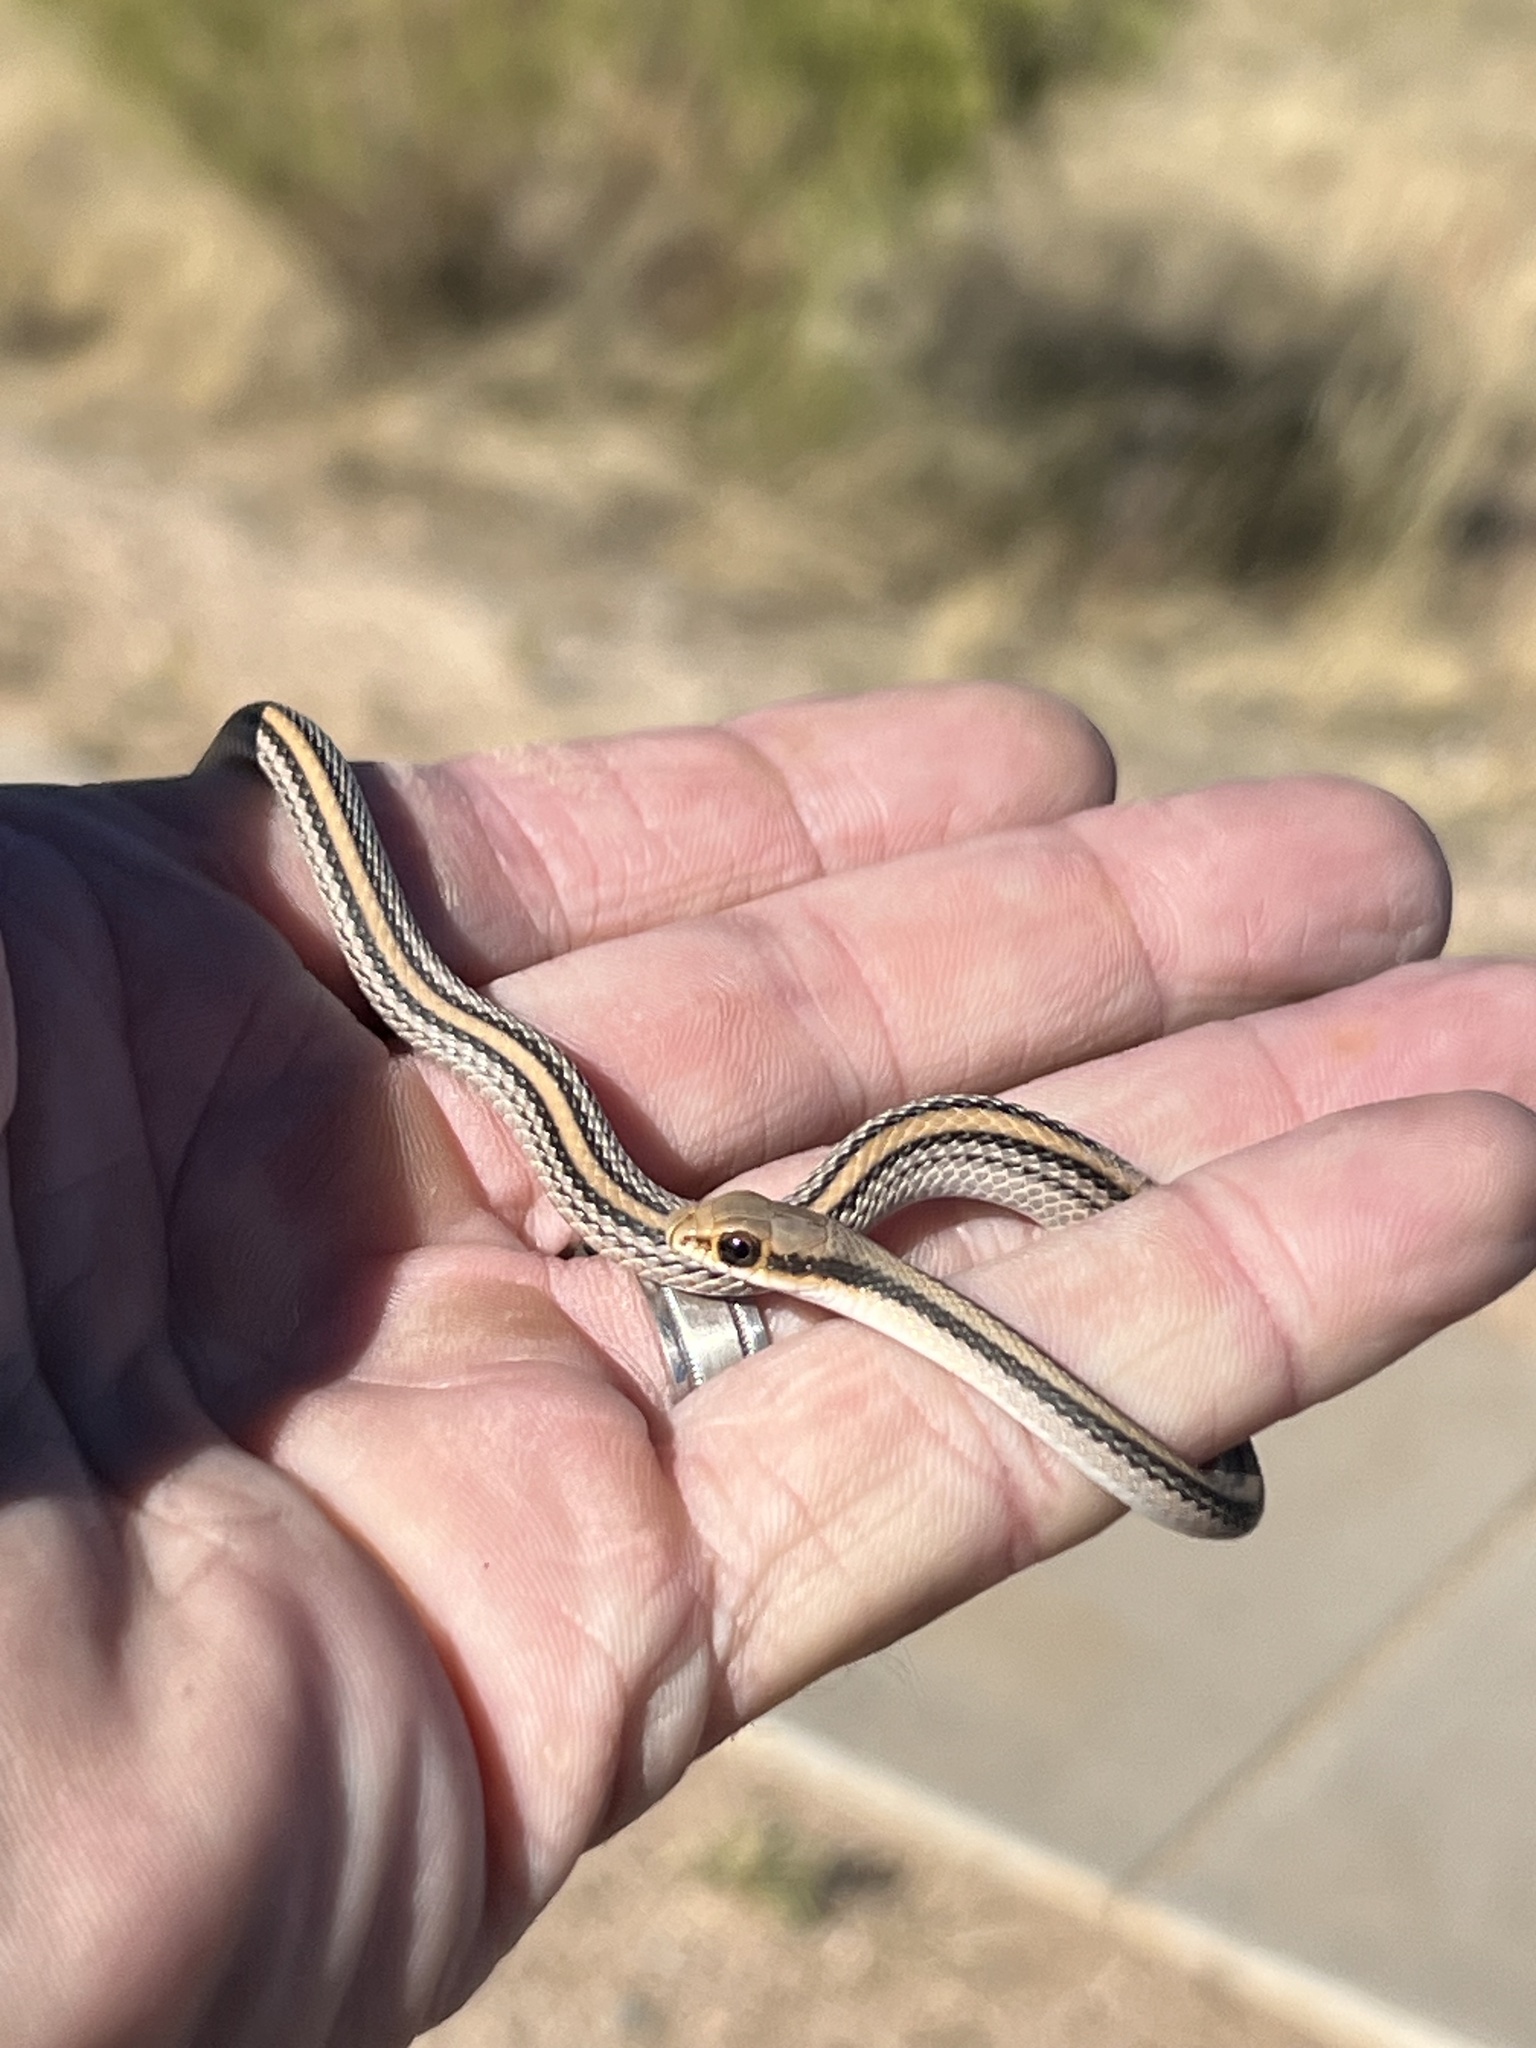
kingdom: Animalia
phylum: Chordata
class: Squamata
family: Colubridae
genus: Salvadora
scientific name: Salvadora deserticola
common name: Big bend patchnose snake
